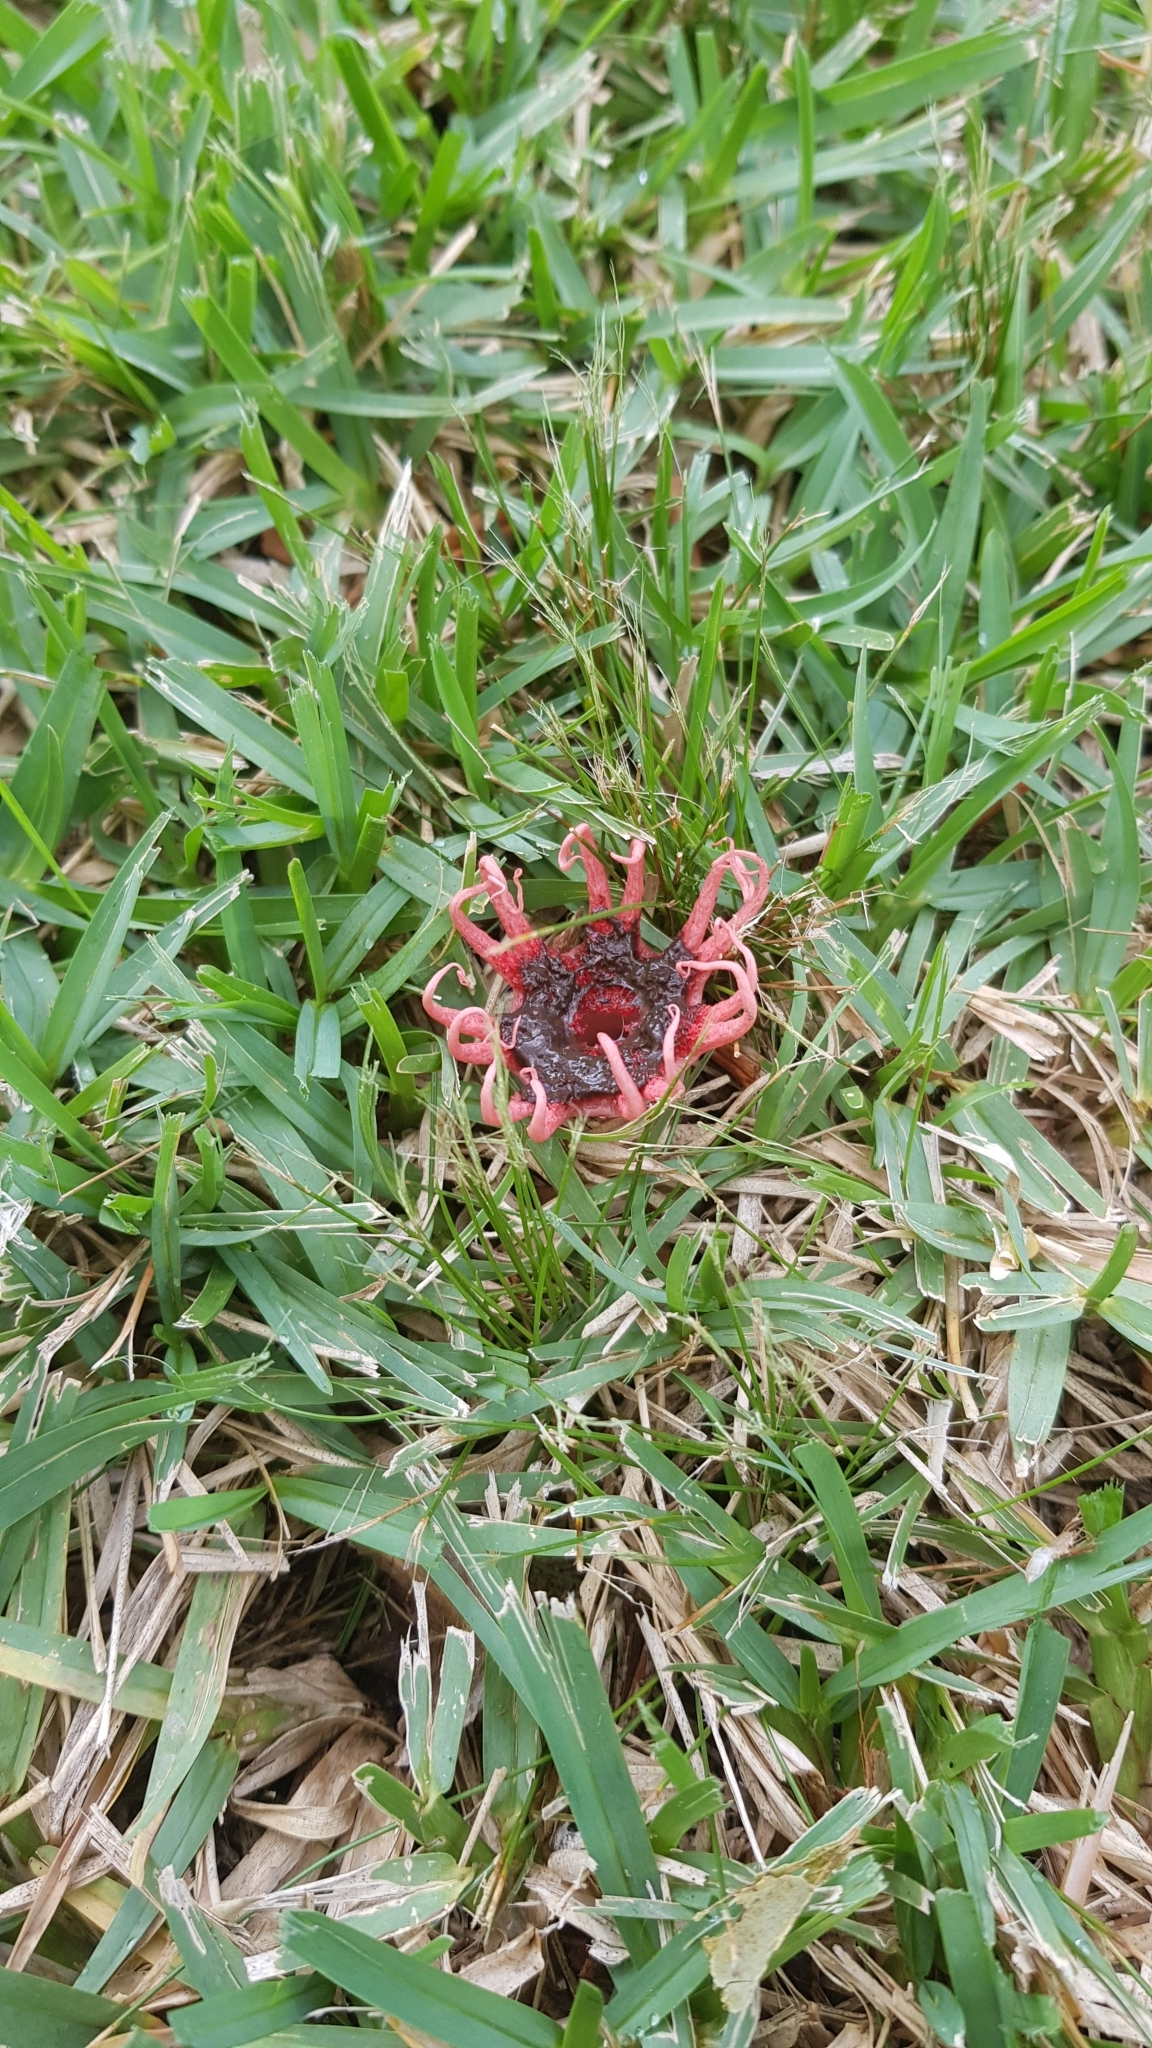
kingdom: Fungi
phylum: Basidiomycota
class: Agaricomycetes
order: Phallales
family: Phallaceae
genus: Aseroe
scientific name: Aseroe rubra
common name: Starfish fungus
